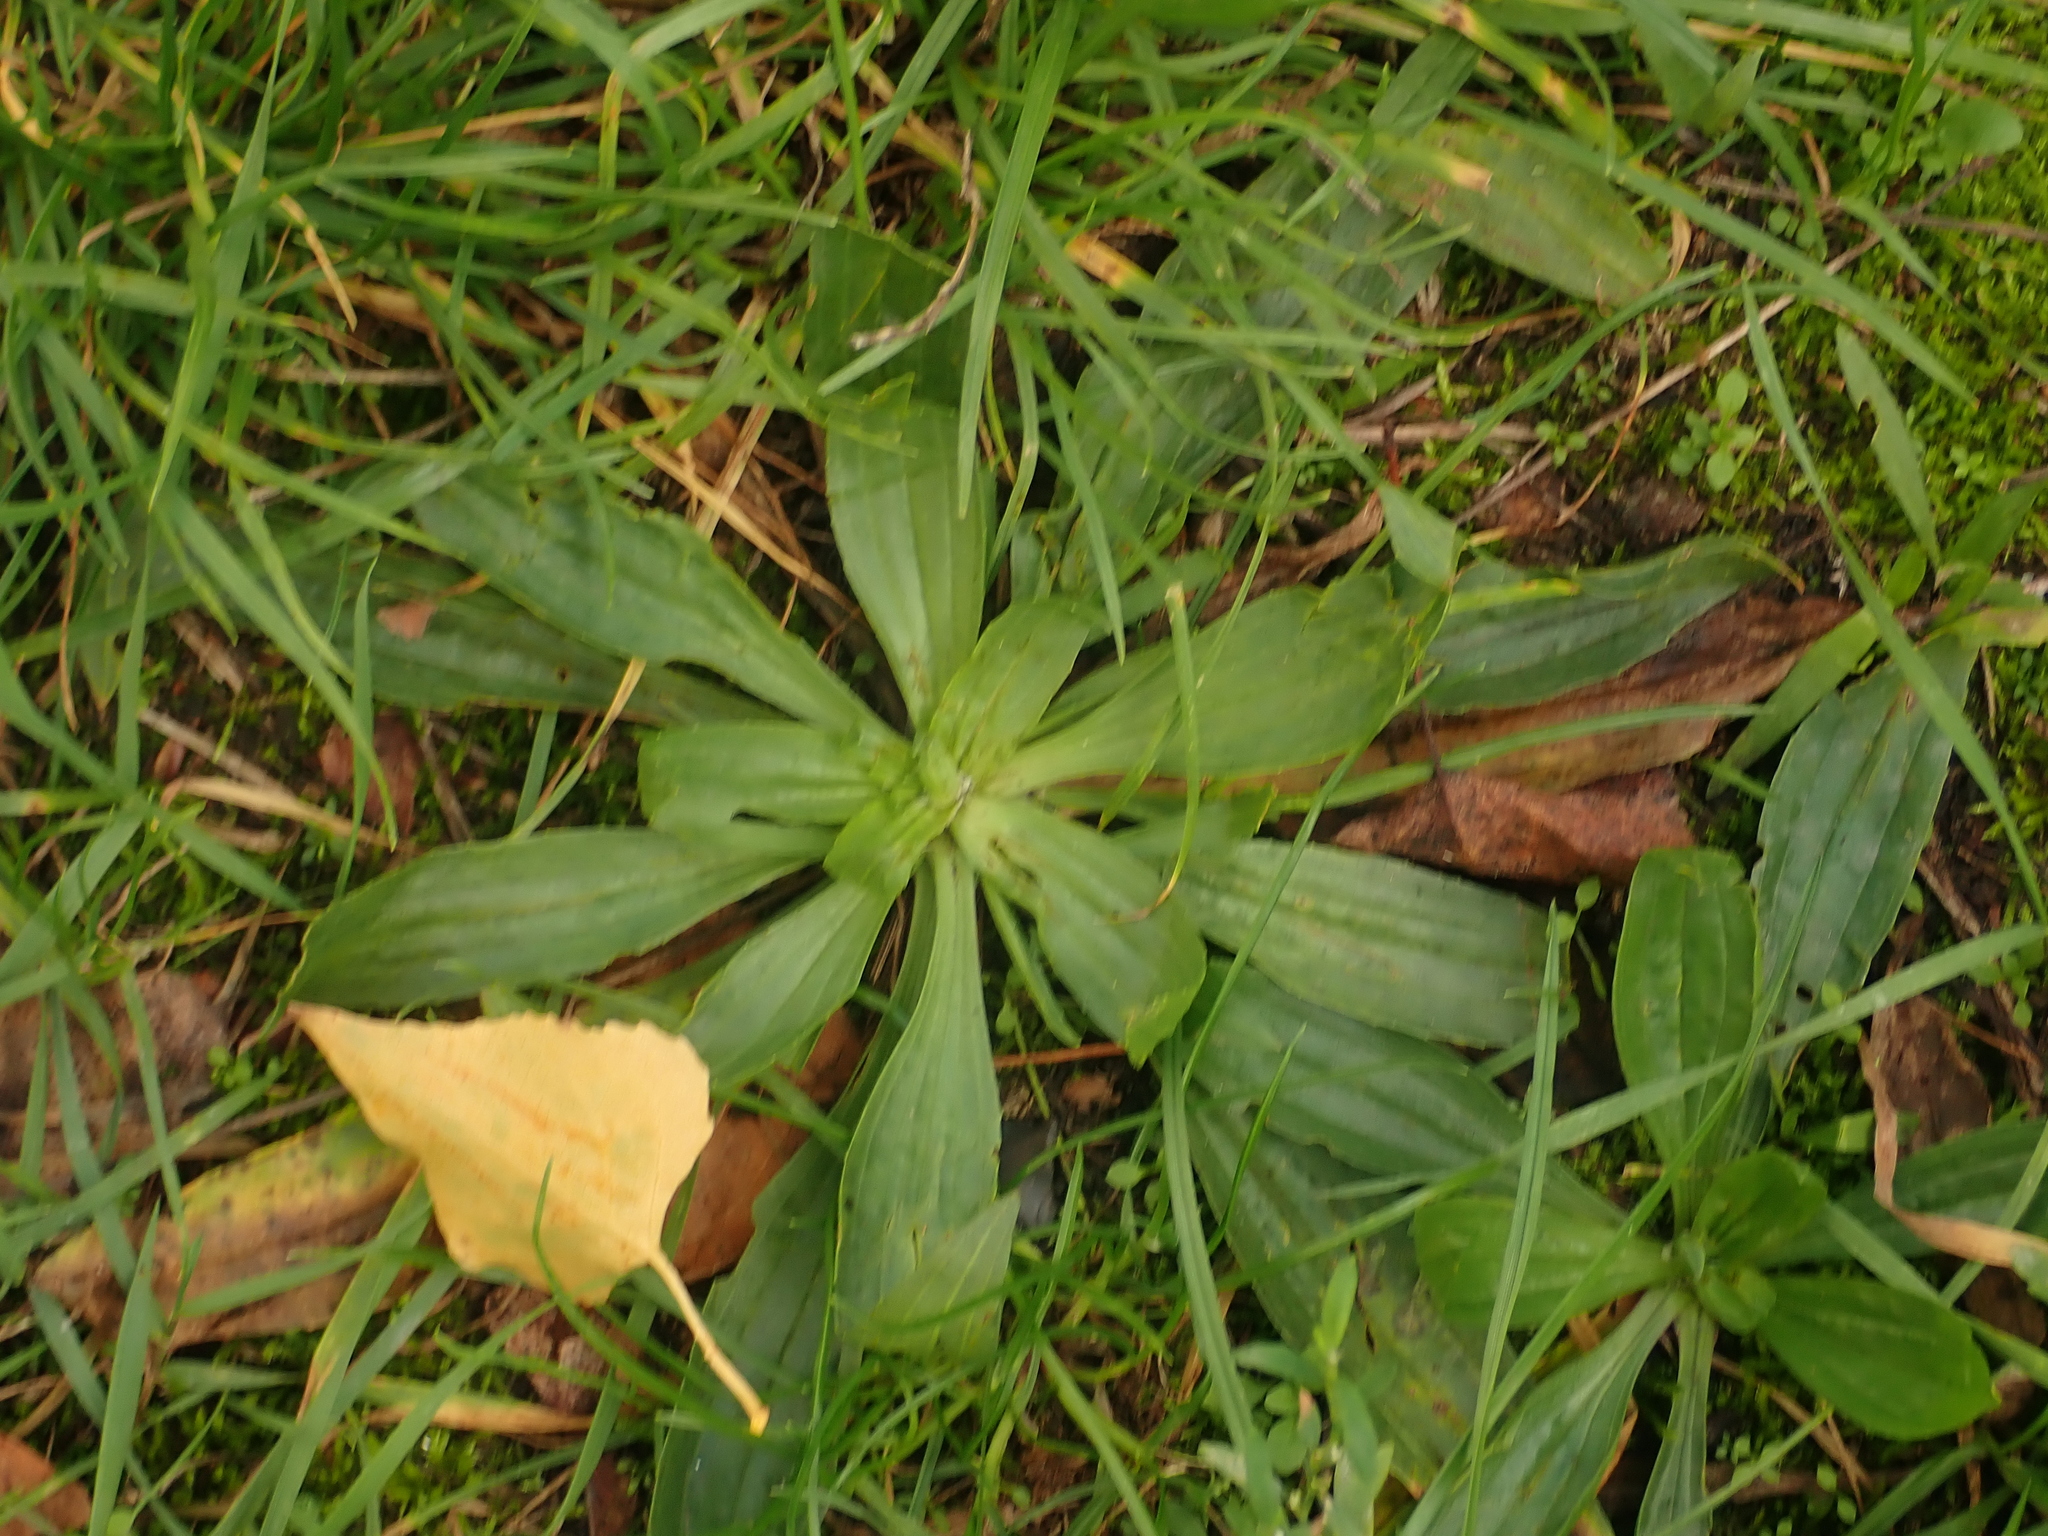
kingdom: Plantae
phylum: Tracheophyta
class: Magnoliopsida
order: Lamiales
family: Plantaginaceae
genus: Plantago
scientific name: Plantago lanceolata
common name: Ribwort plantain
